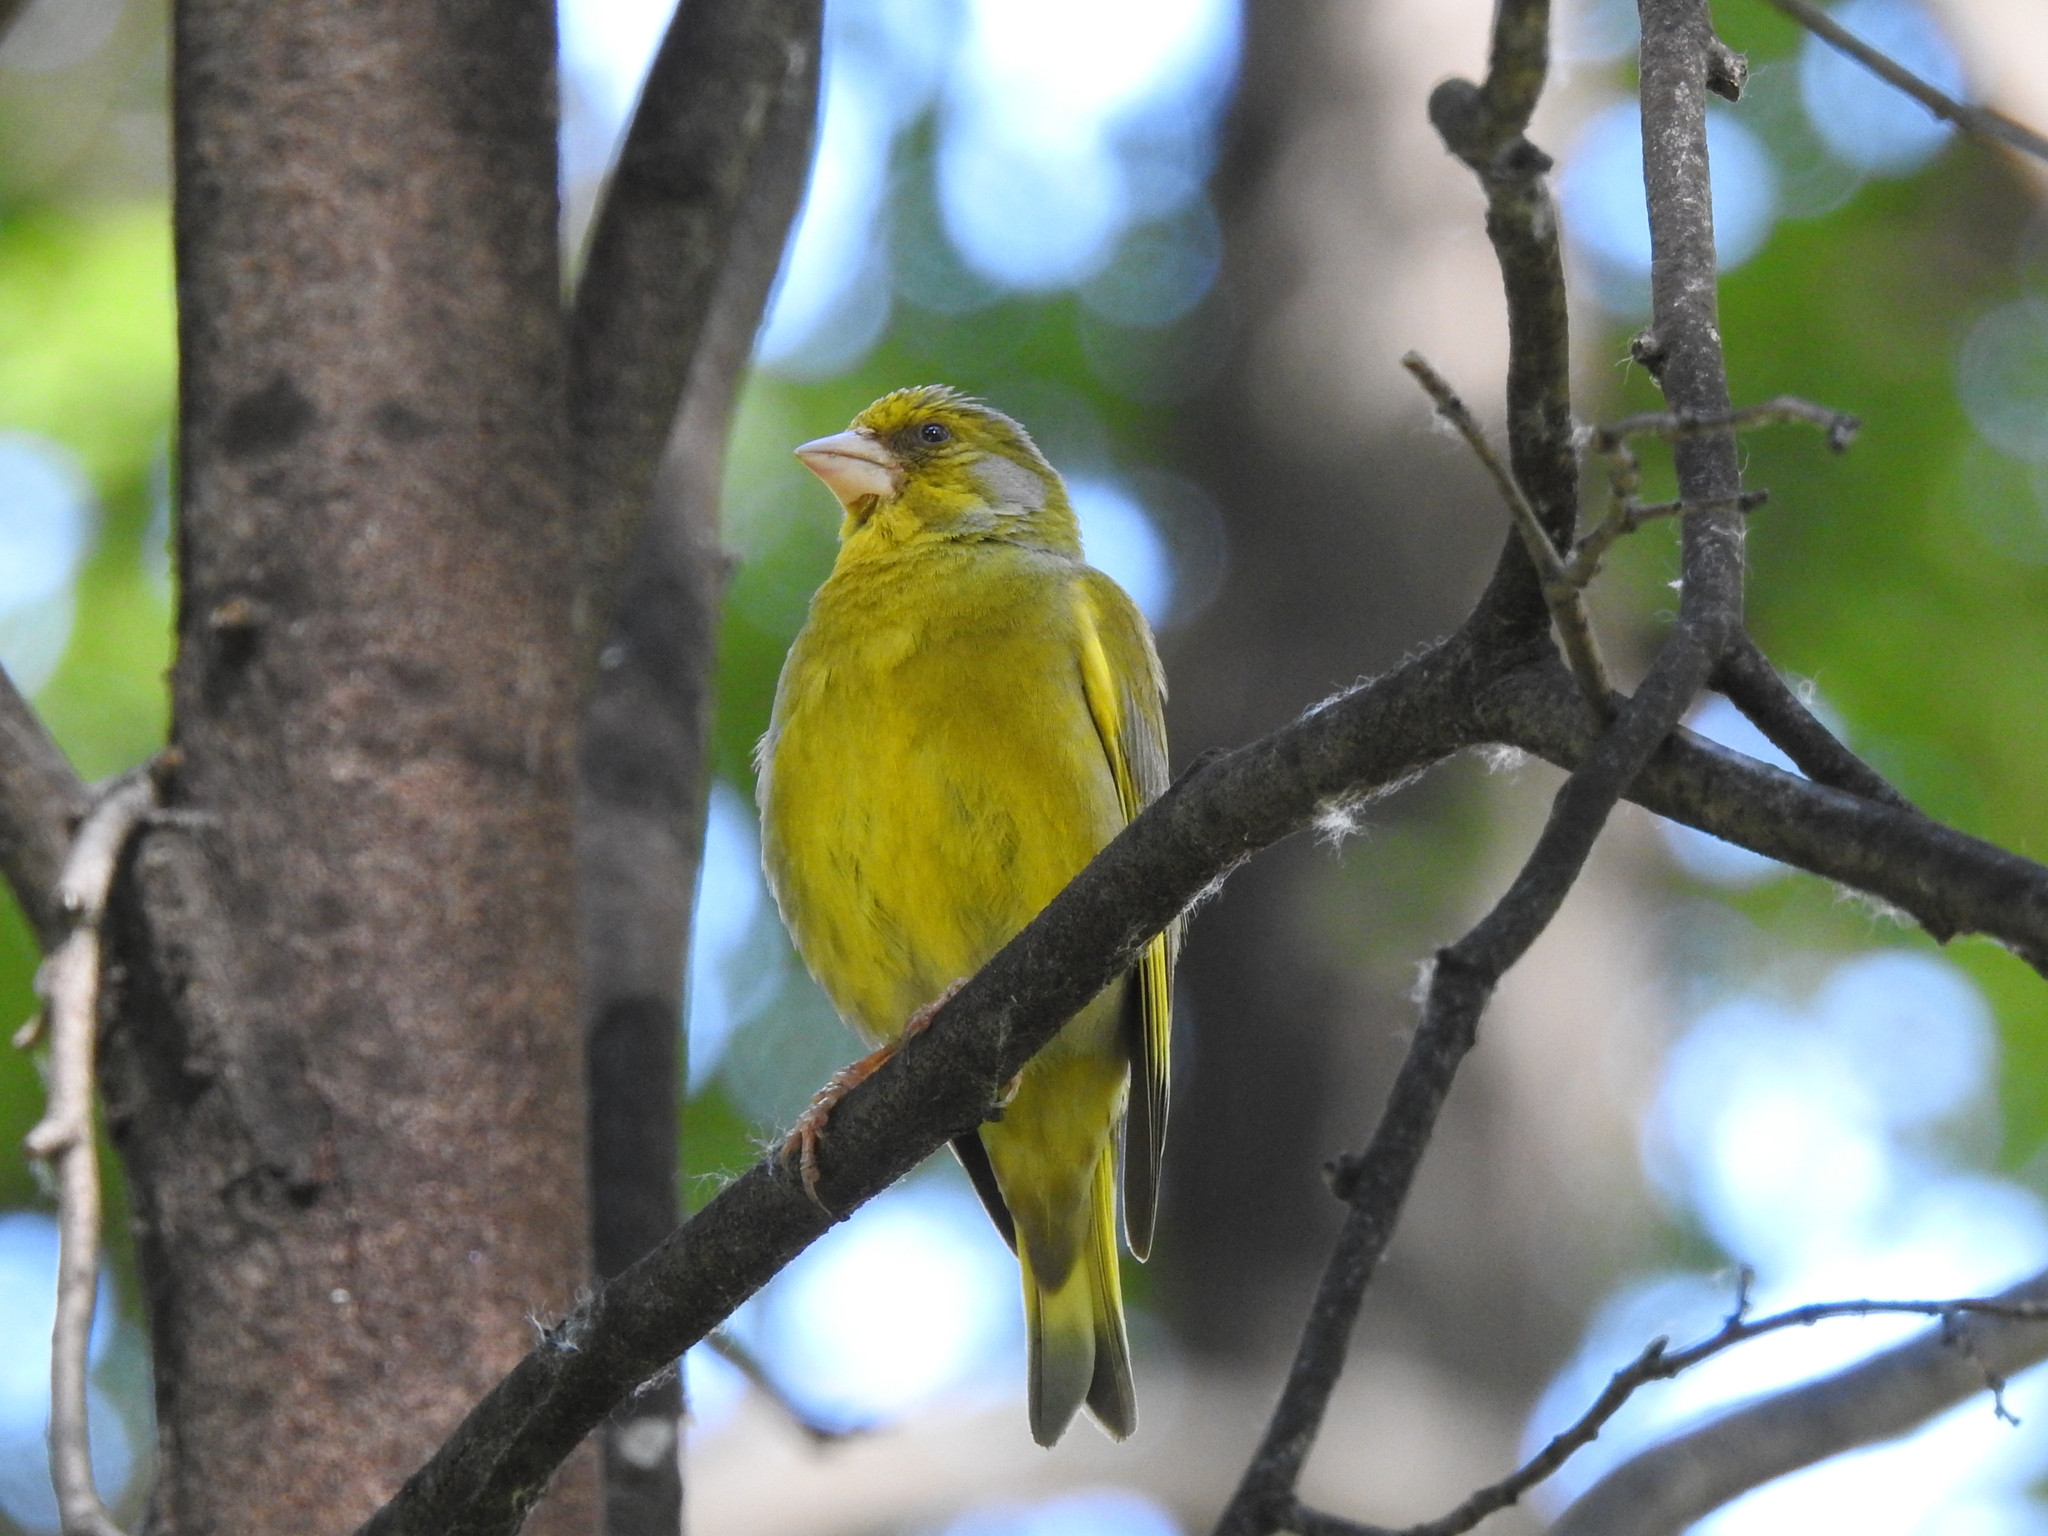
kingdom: Plantae
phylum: Tracheophyta
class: Liliopsida
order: Poales
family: Poaceae
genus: Chloris
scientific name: Chloris chloris
